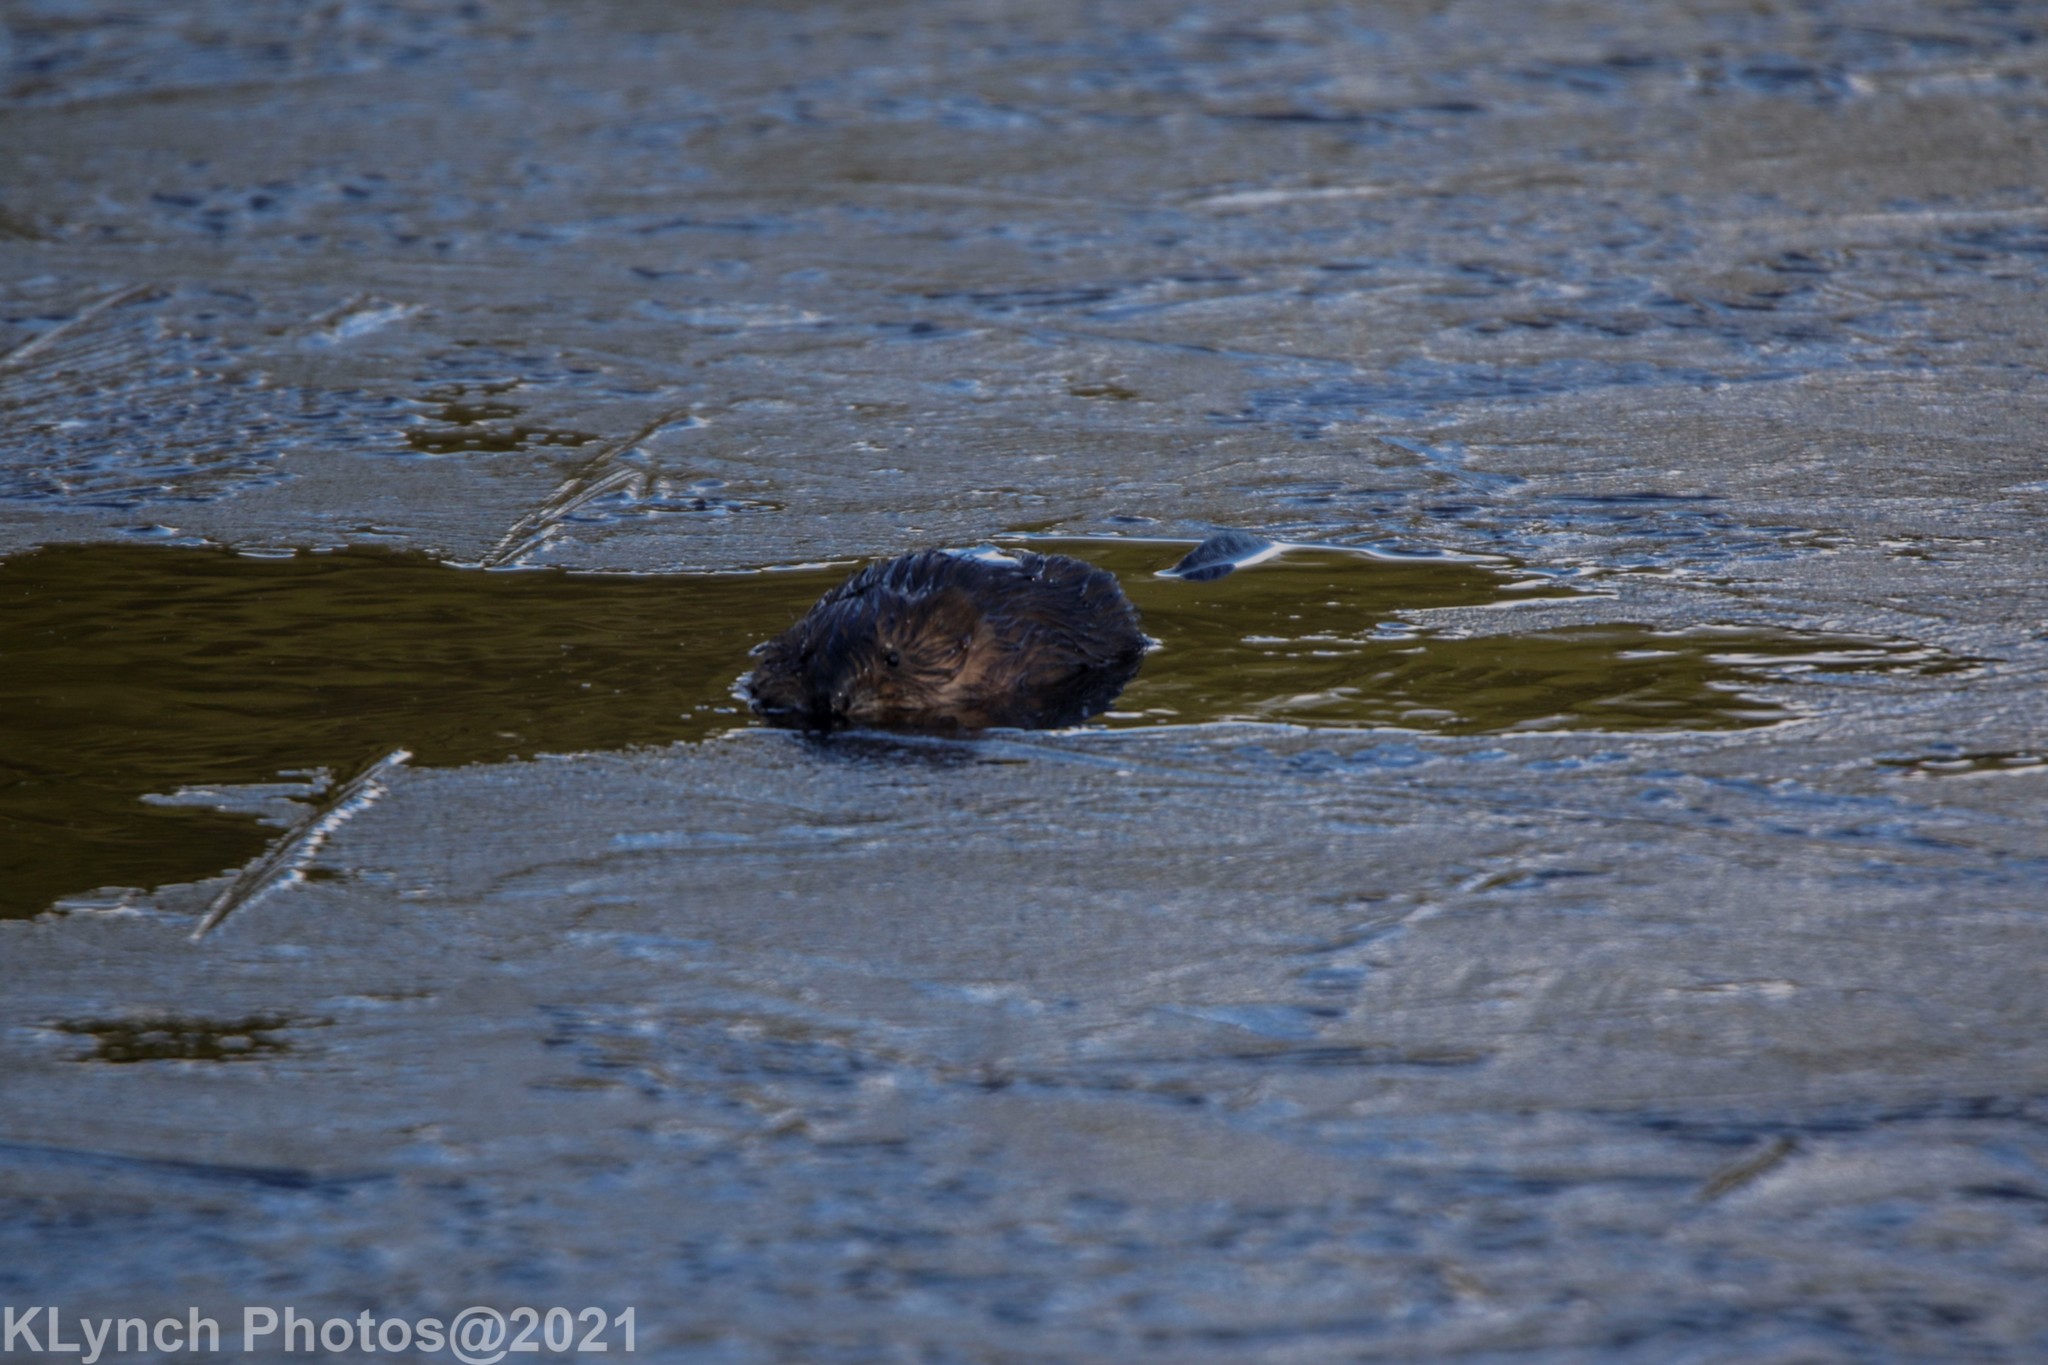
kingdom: Animalia
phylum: Chordata
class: Mammalia
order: Rodentia
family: Cricetidae
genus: Ondatra
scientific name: Ondatra zibethicus
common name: Muskrat
